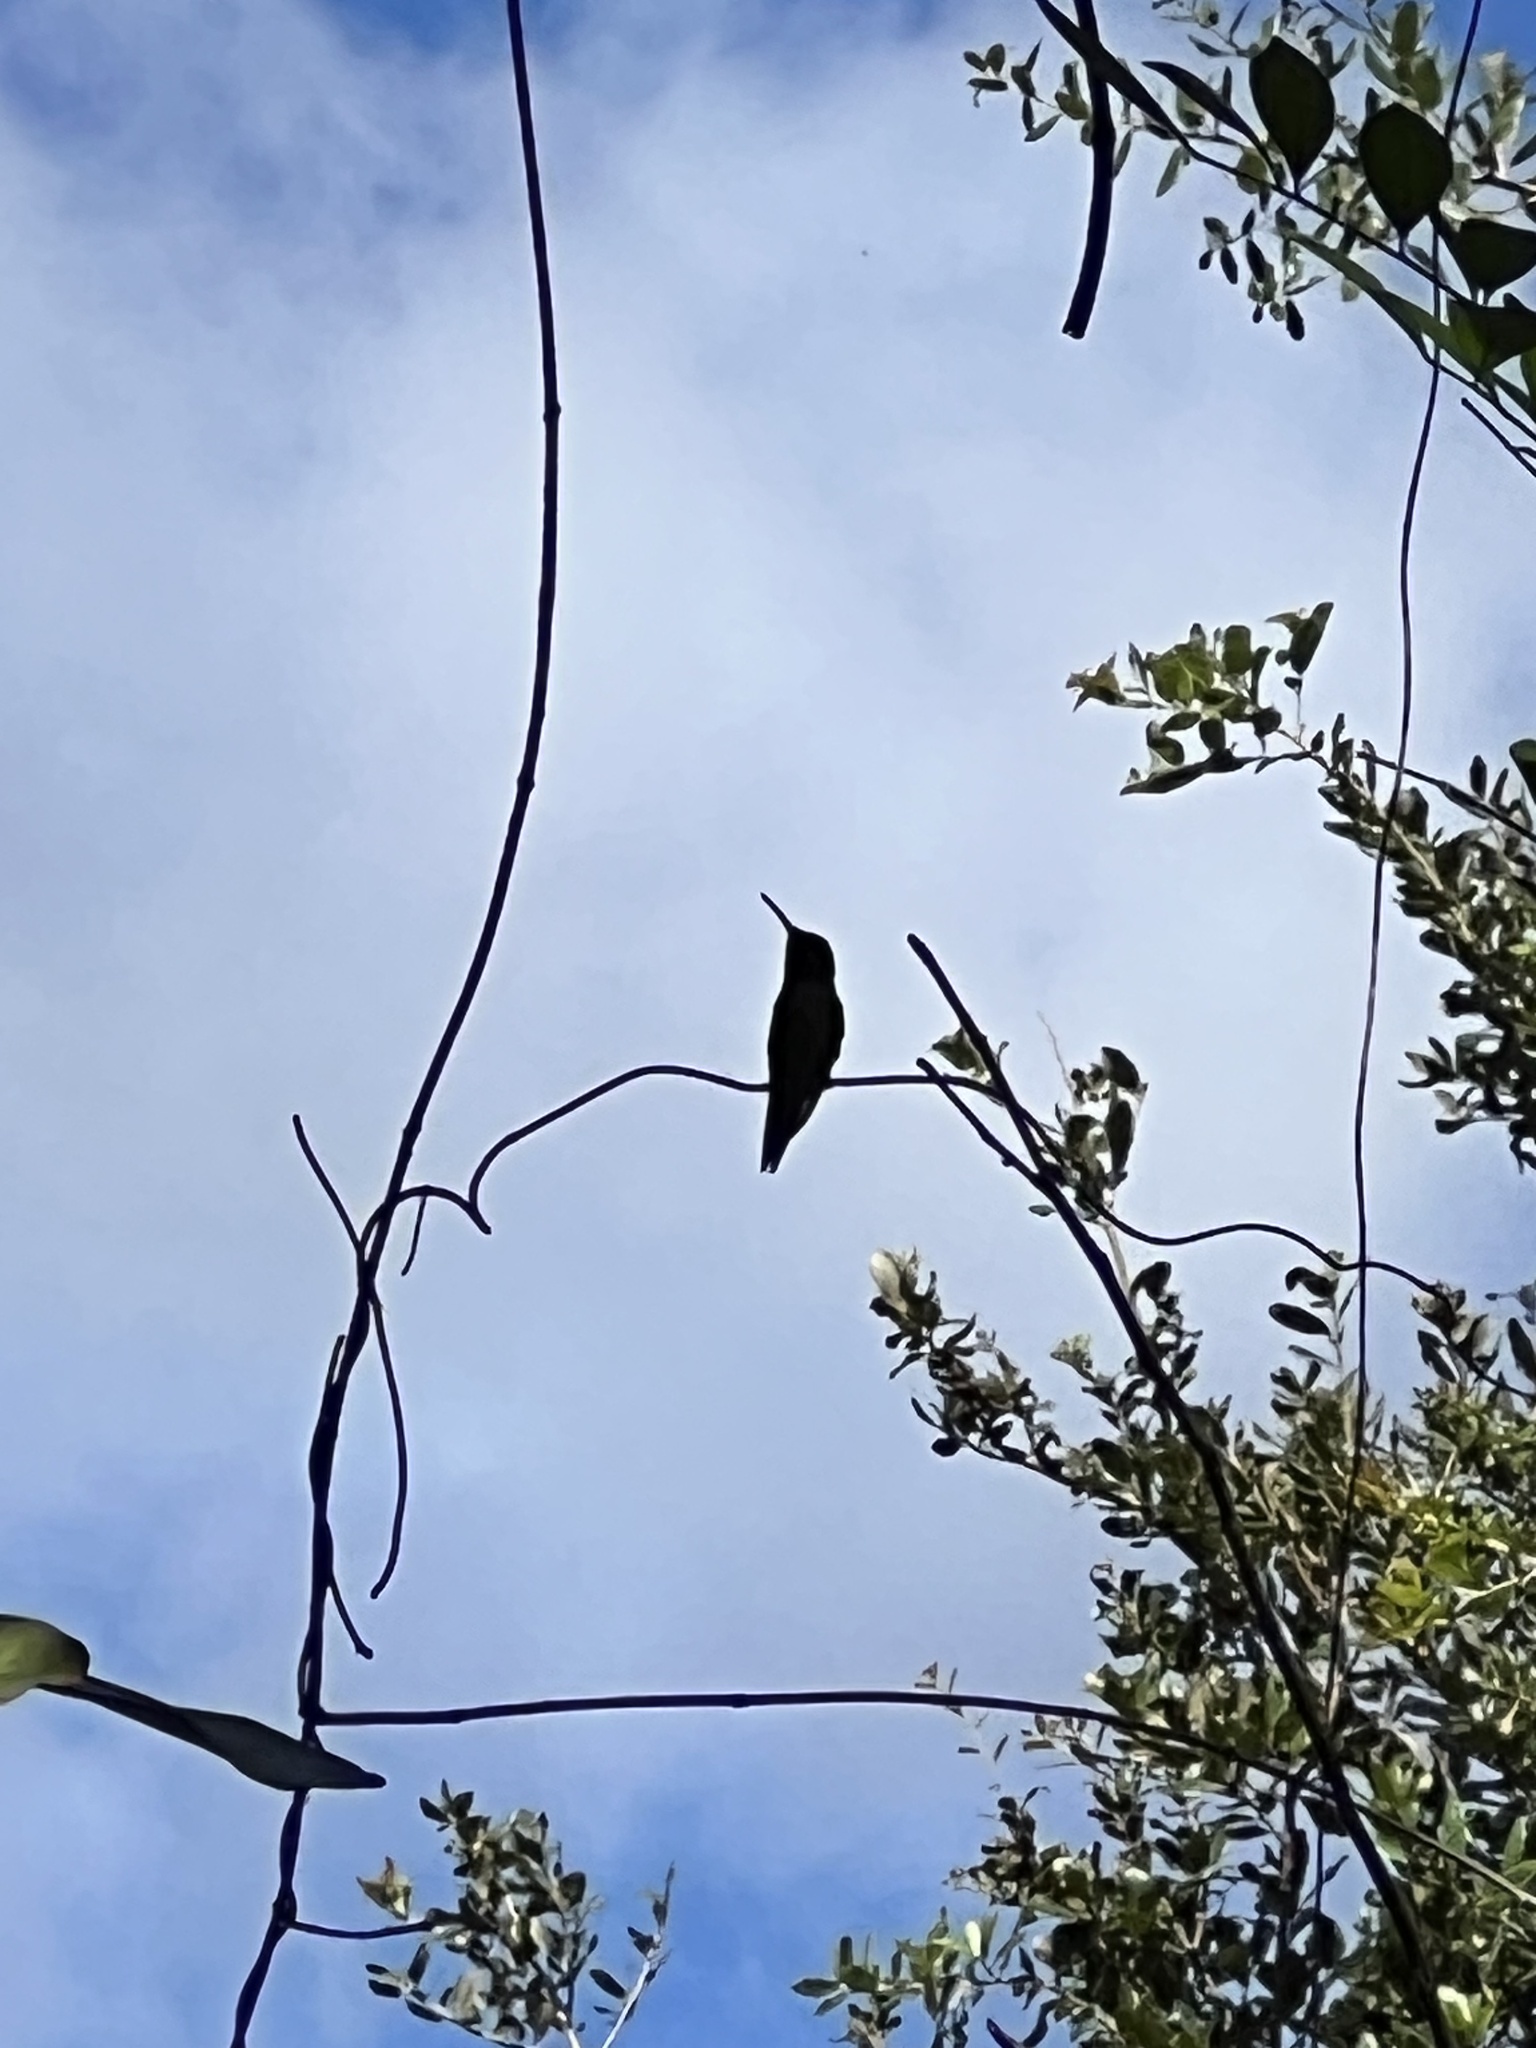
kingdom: Animalia
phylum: Chordata
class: Aves
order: Apodiformes
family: Trochilidae
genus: Archilochus
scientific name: Archilochus colubris
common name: Ruby-throated hummingbird
